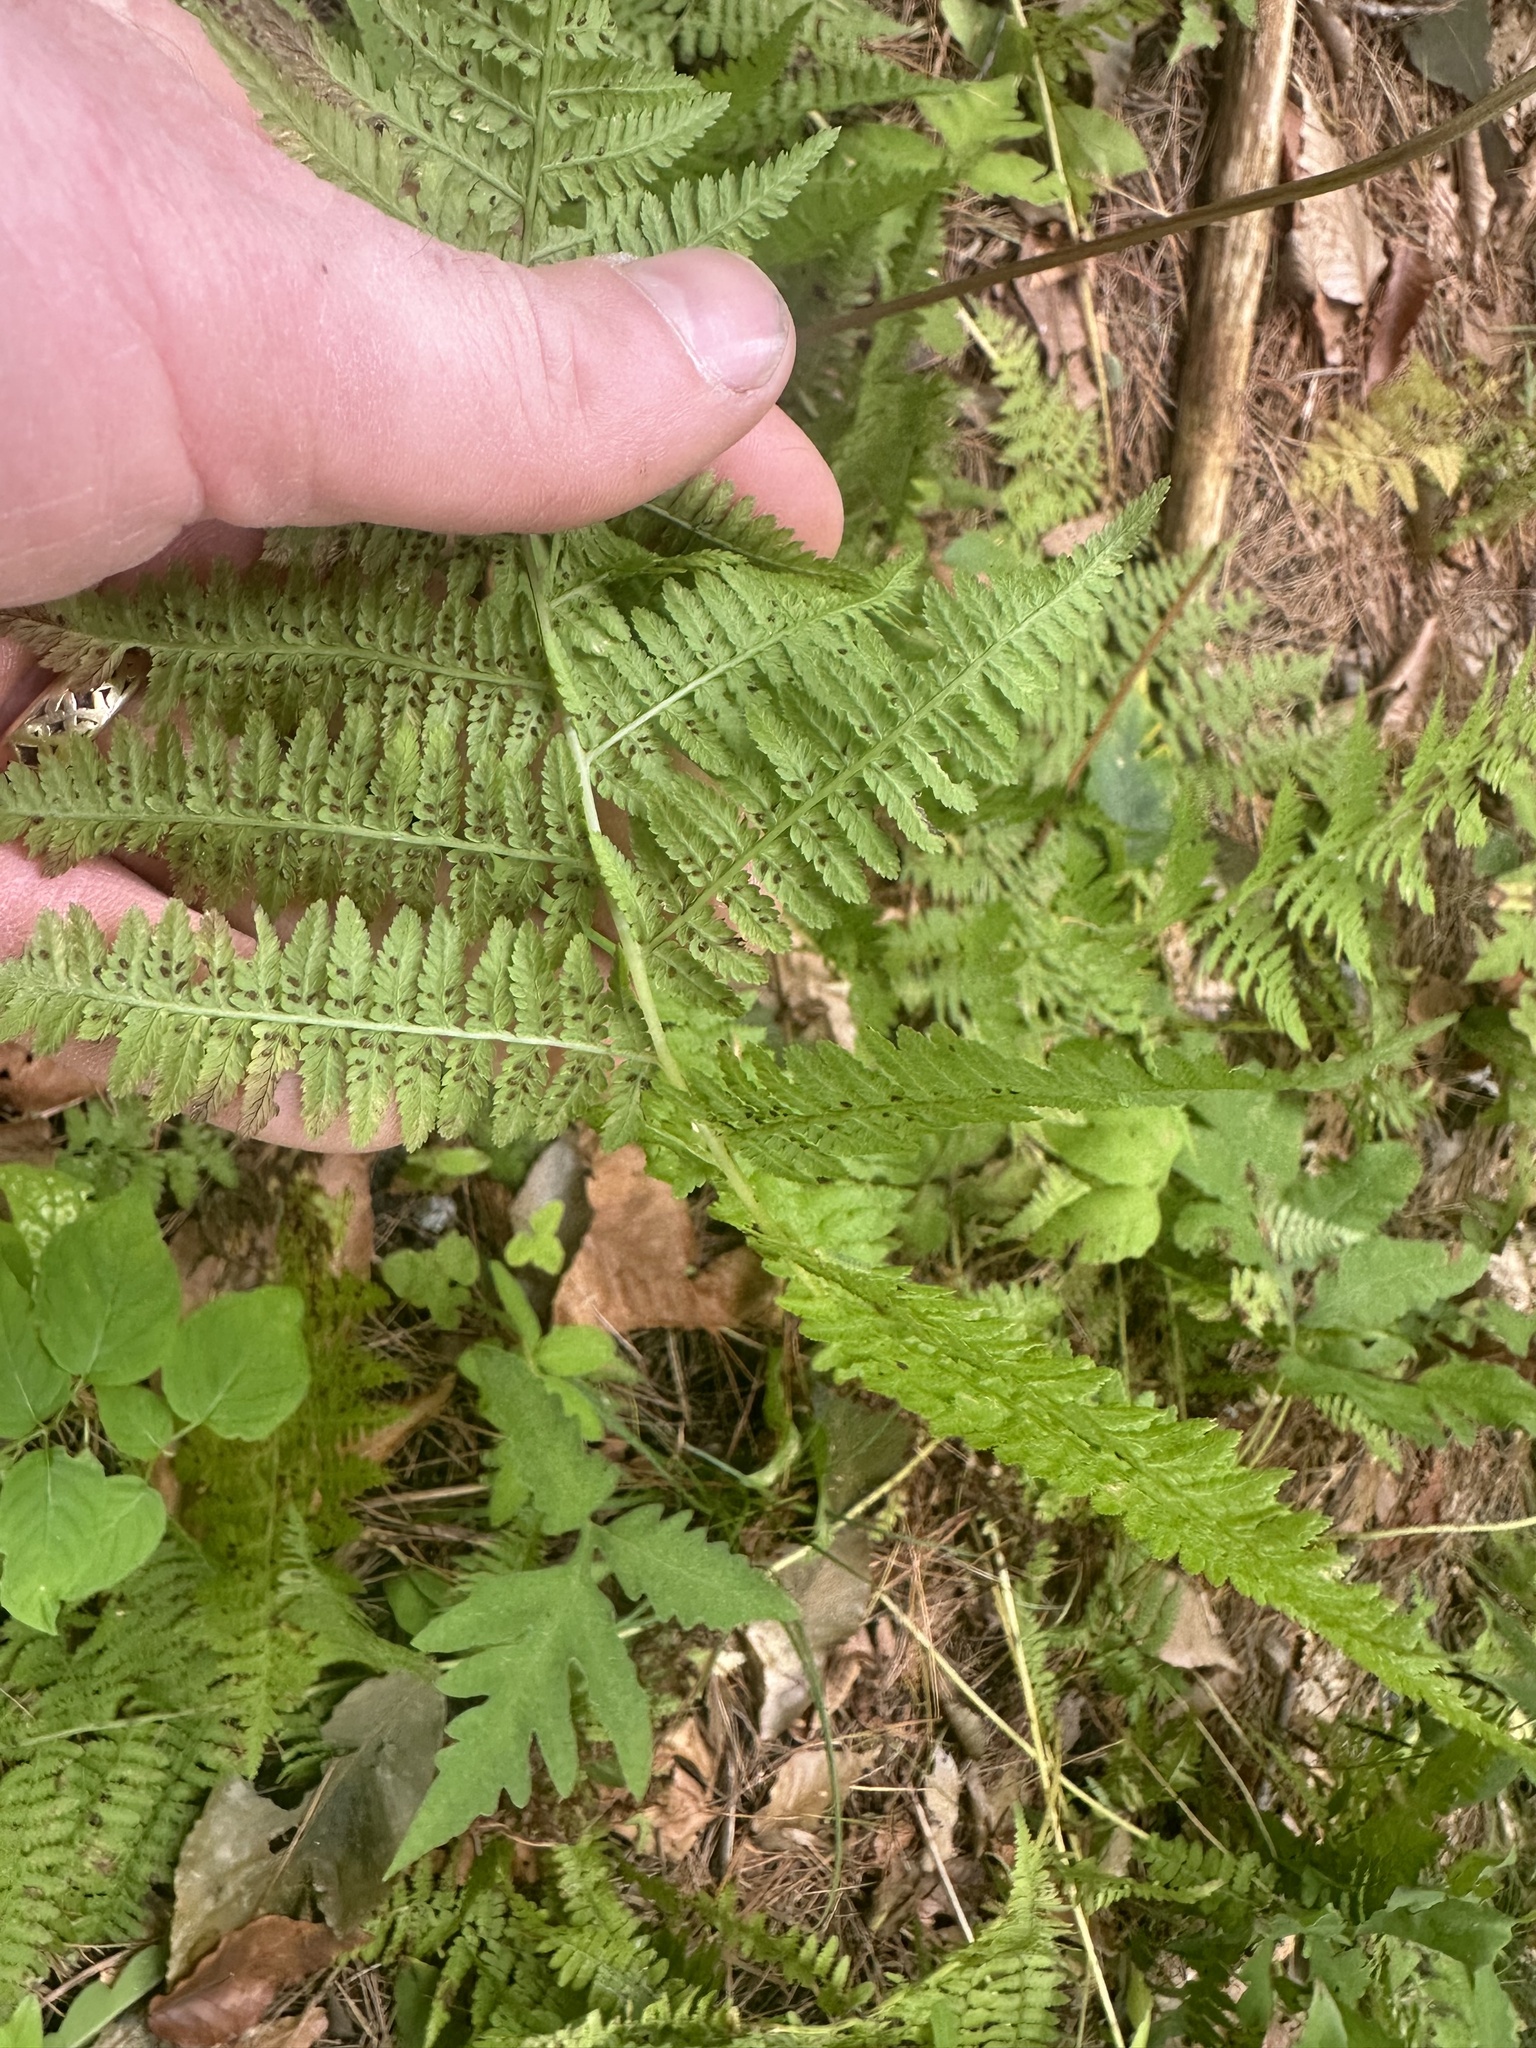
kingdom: Plantae
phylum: Tracheophyta
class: Polypodiopsida
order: Polypodiales
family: Athyriaceae
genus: Athyrium
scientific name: Athyrium angustum
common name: Northern lady fern
